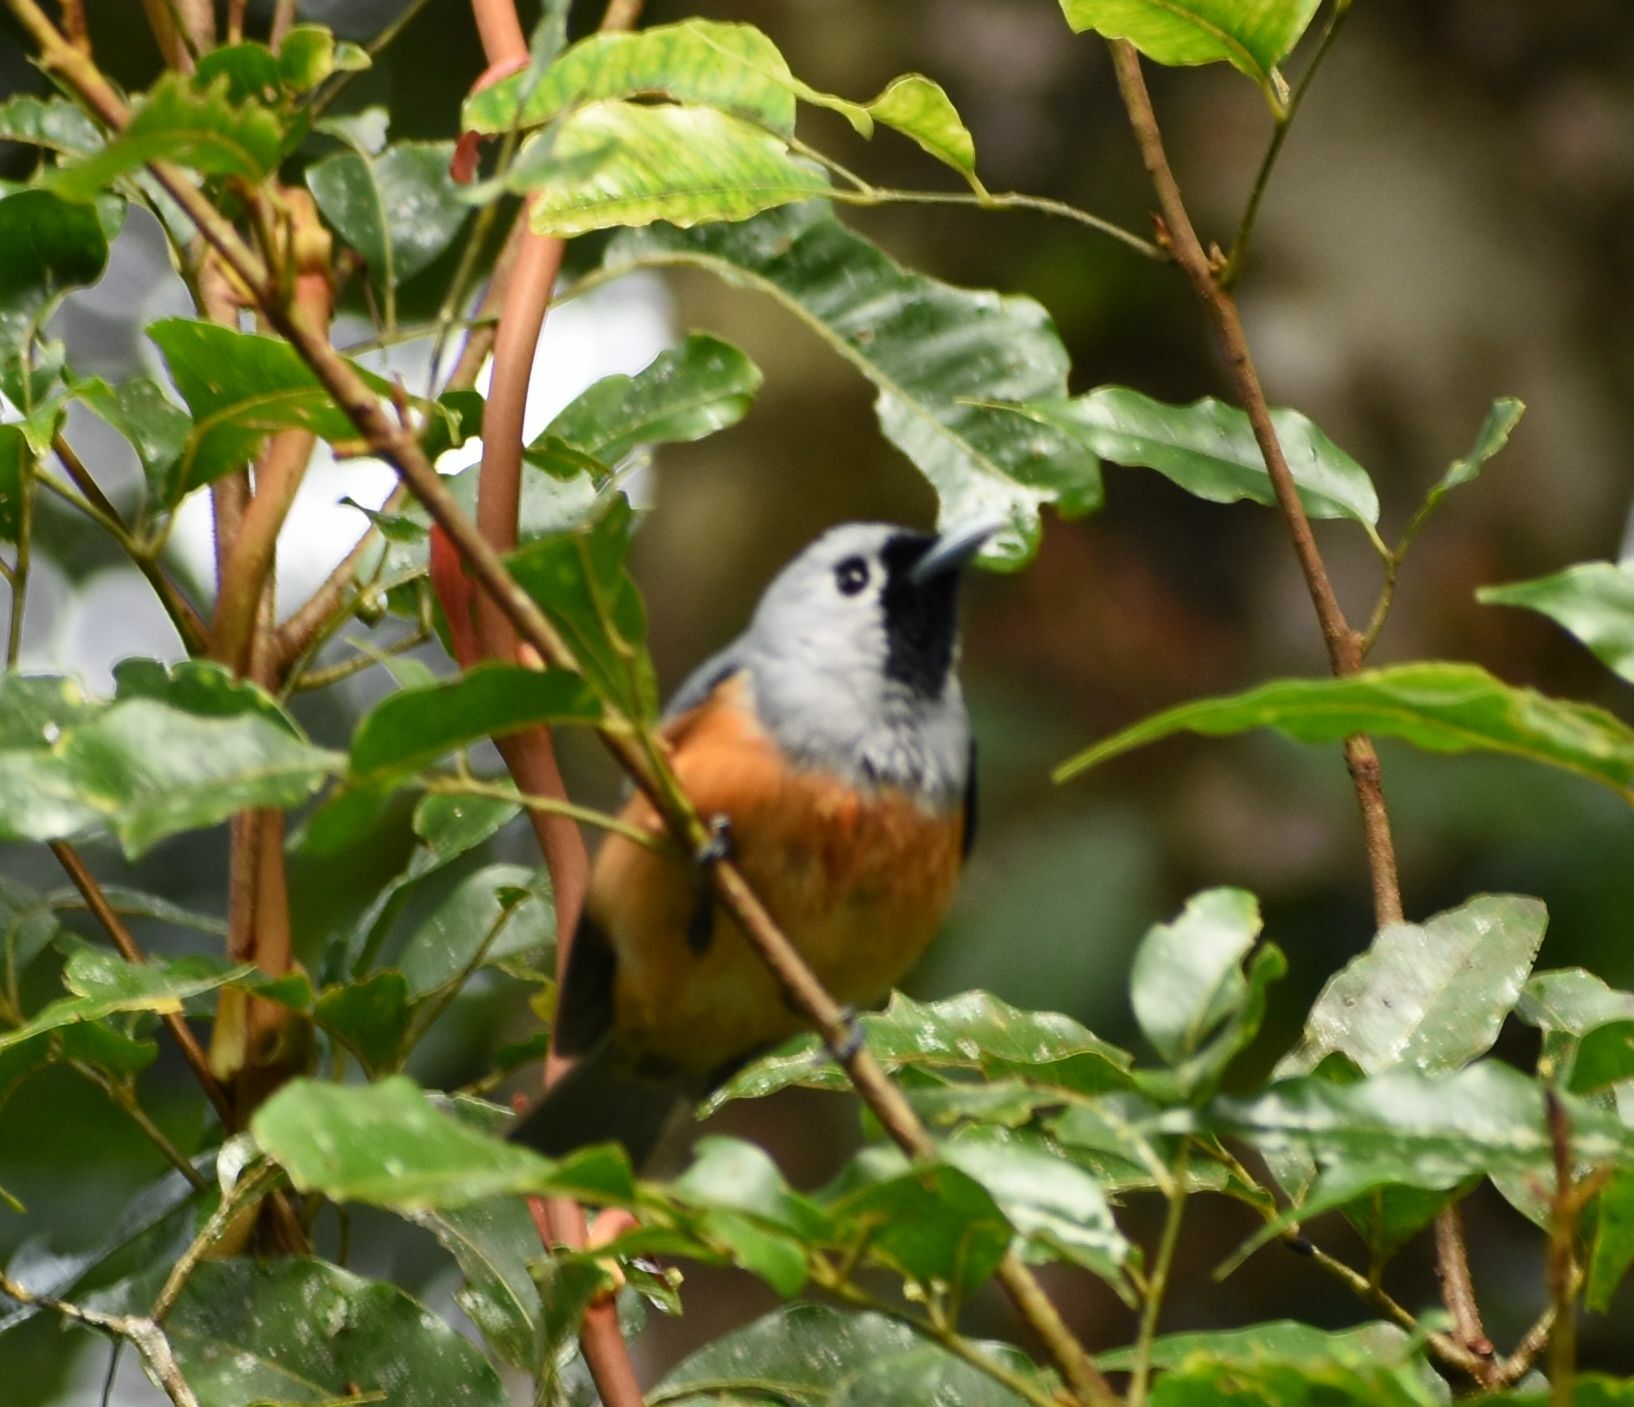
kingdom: Animalia
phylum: Chordata
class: Aves
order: Passeriformes
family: Monarchidae
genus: Monarcha
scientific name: Monarcha melanopsis
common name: Black-faced monarch
